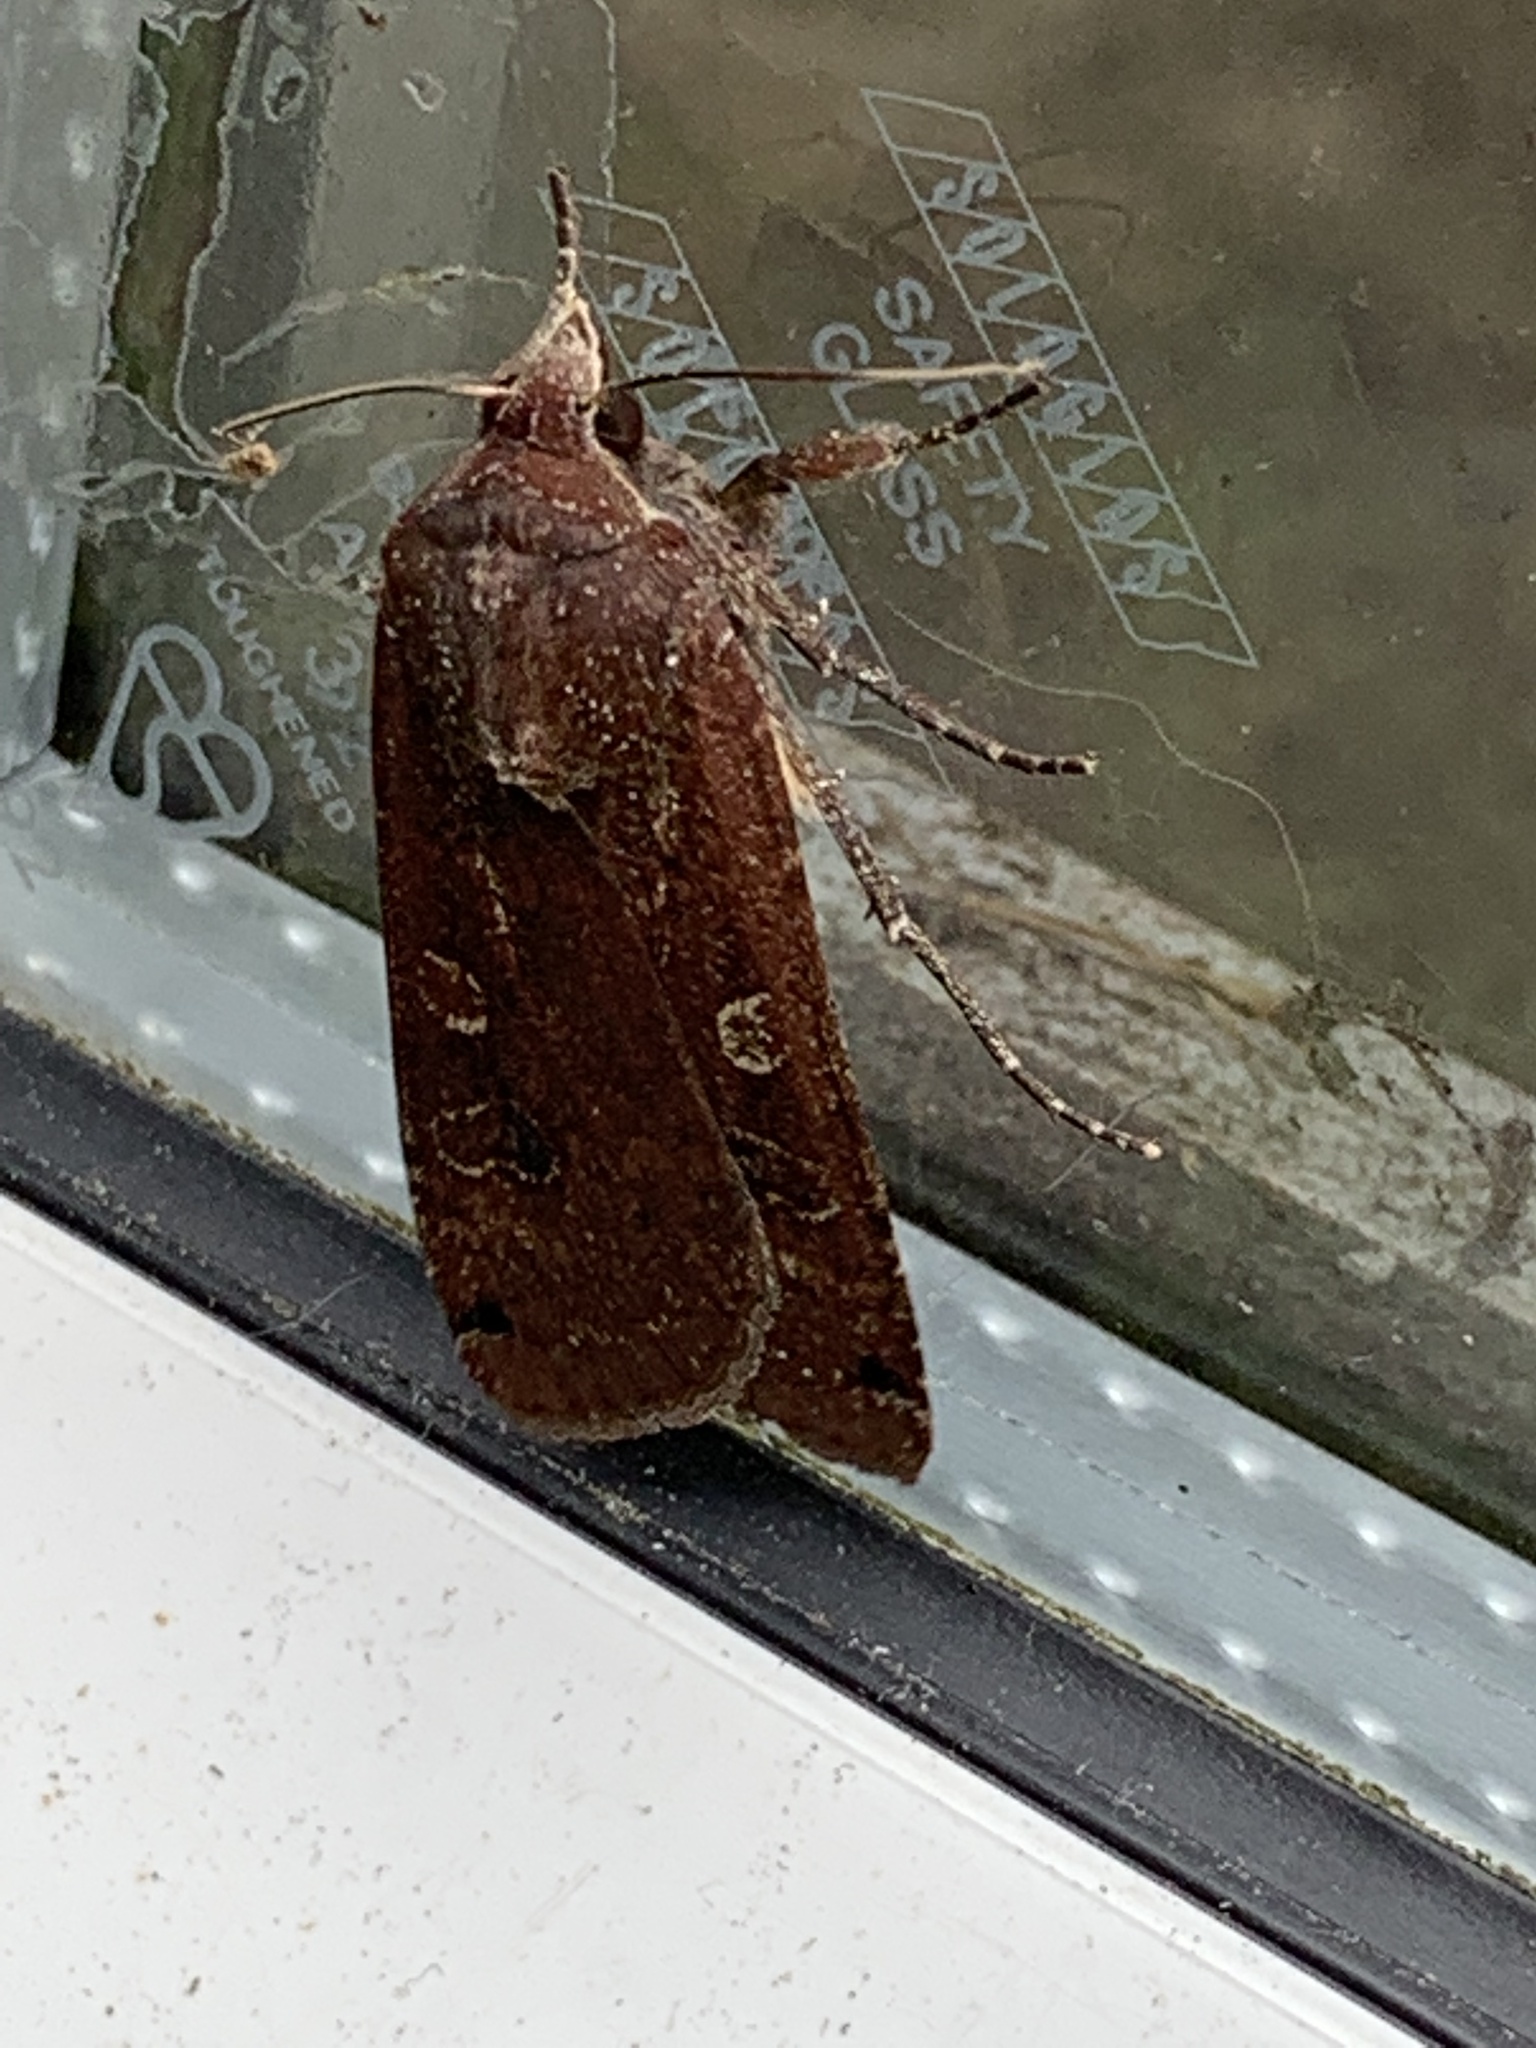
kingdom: Animalia
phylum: Arthropoda
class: Insecta
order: Lepidoptera
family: Noctuidae
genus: Noctua
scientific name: Noctua pronuba
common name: Large yellow underwing
